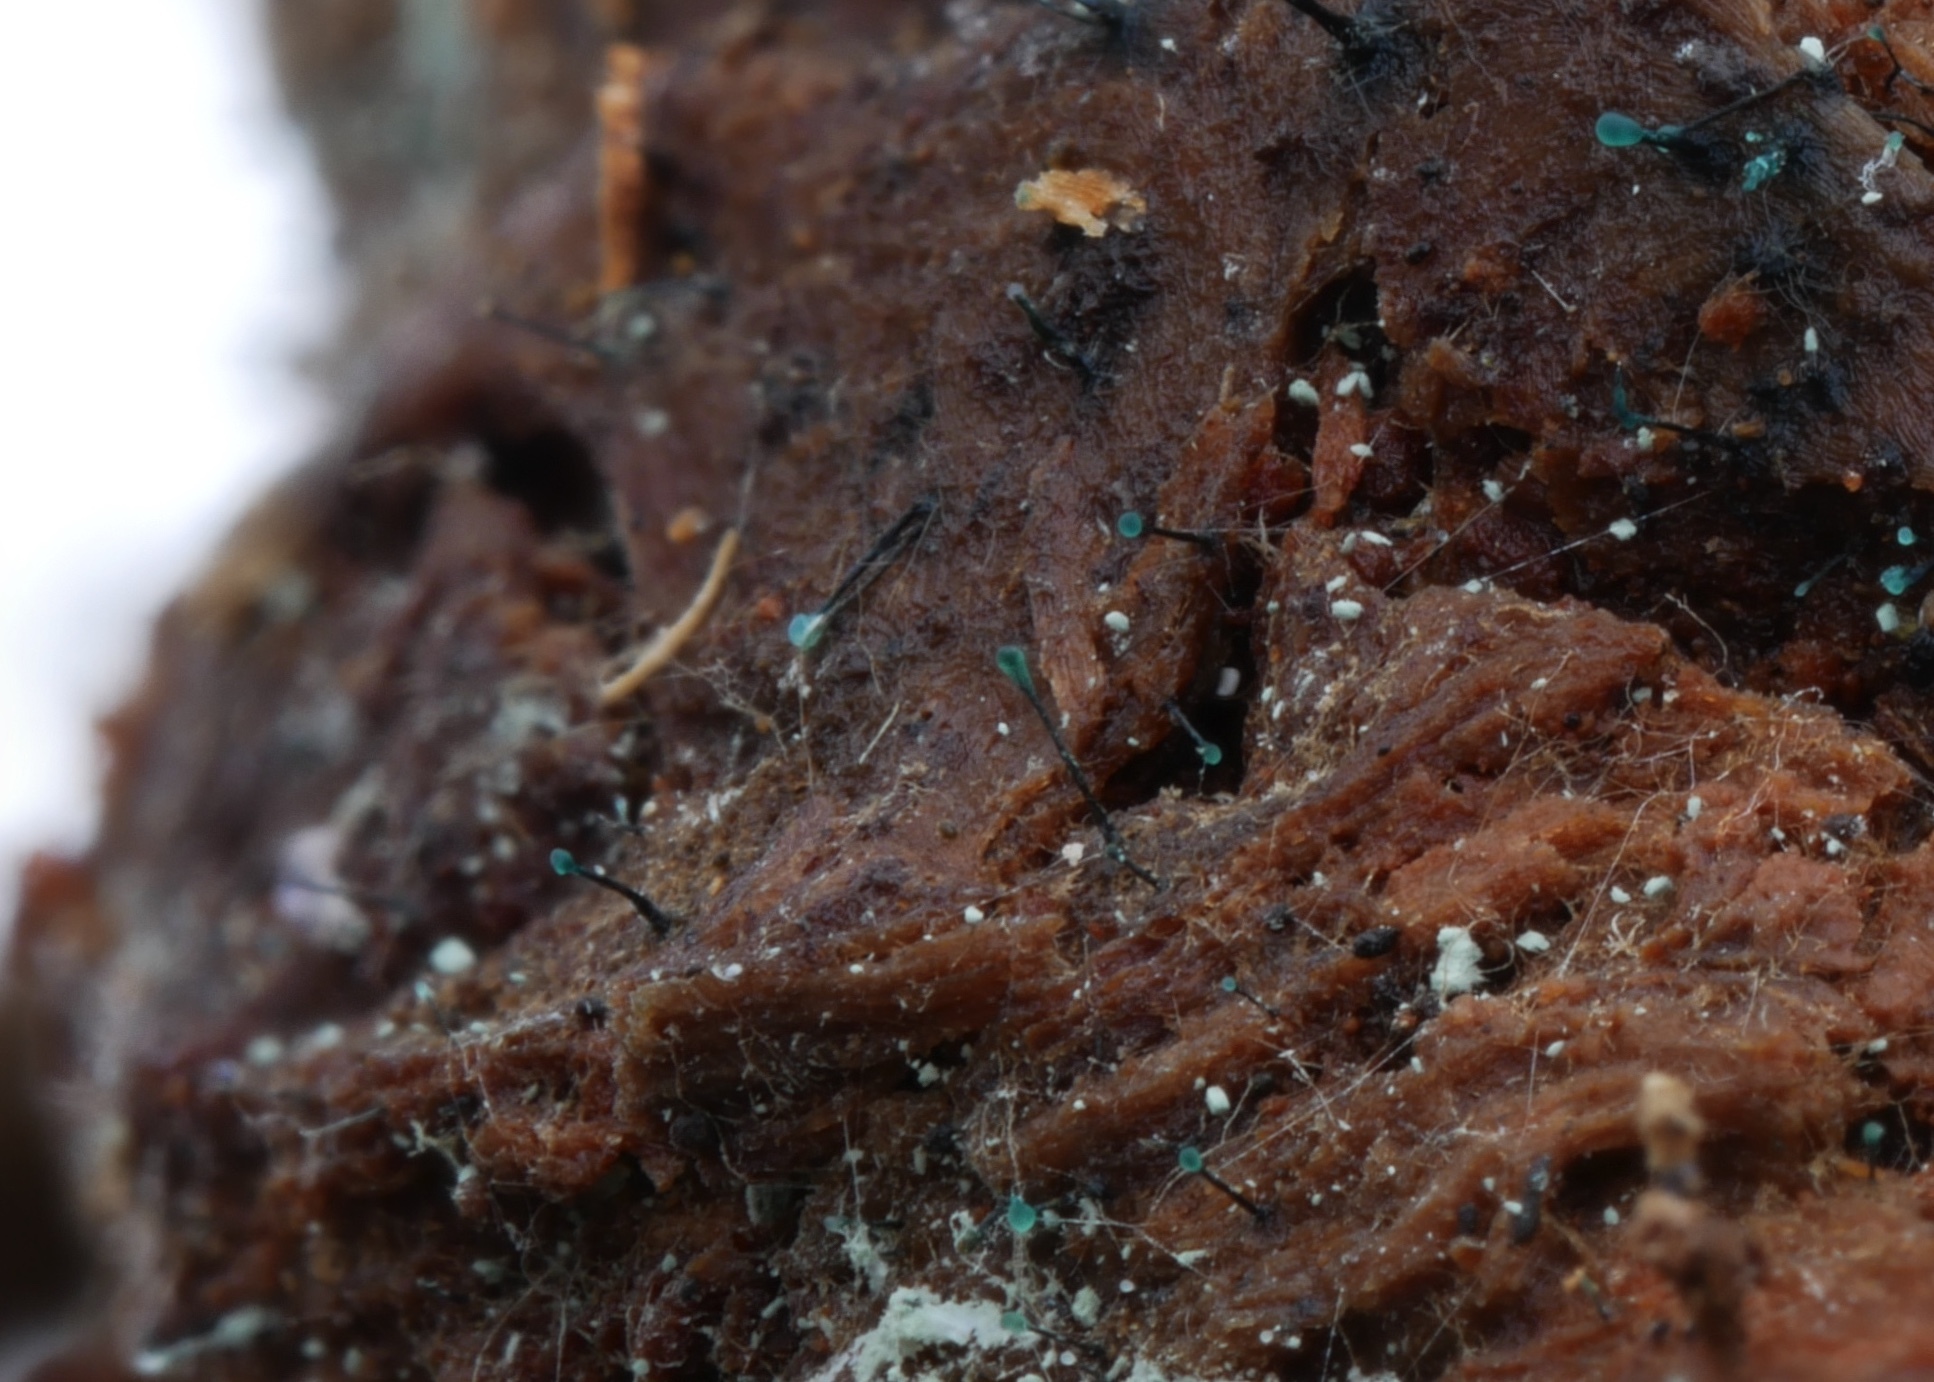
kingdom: Fungi
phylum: Ascomycota
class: Leotiomycetes
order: Leotiales
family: Tympanidaceae
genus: Dendrostilbella
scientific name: Dendrostilbella smaragdina
